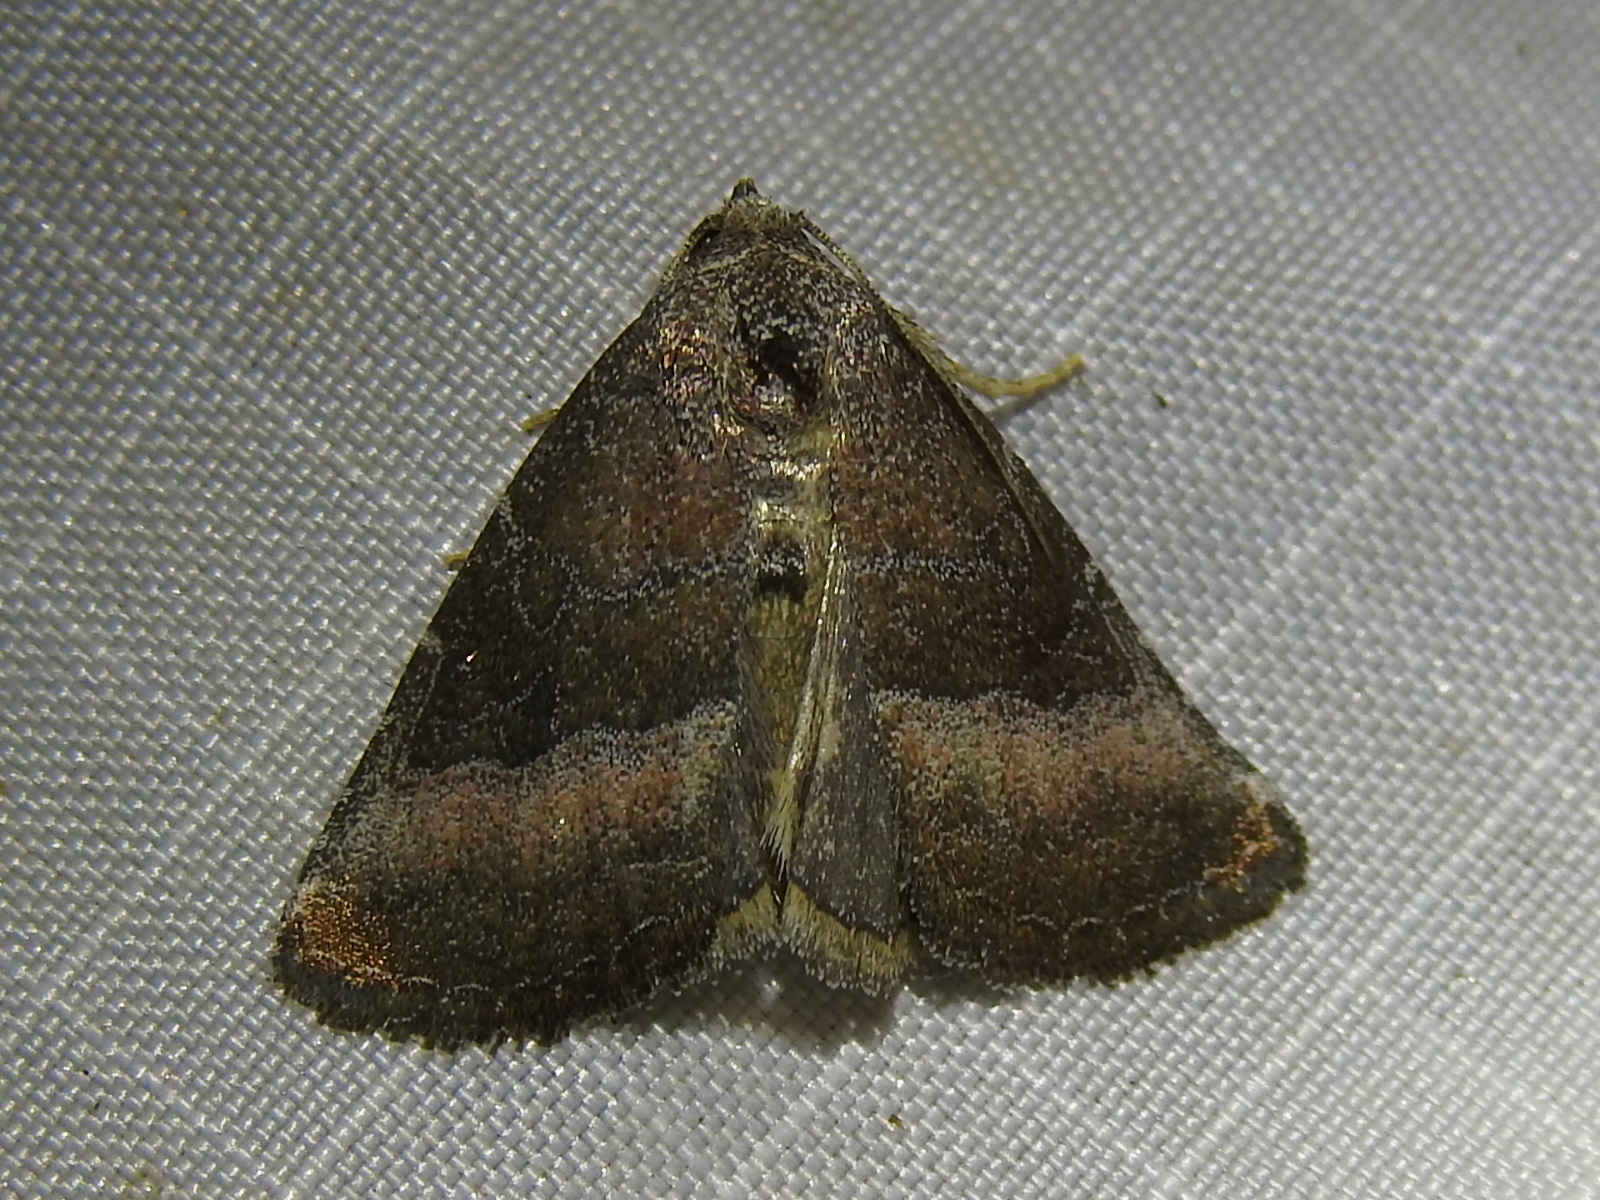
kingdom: Animalia
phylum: Arthropoda
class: Insecta
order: Lepidoptera
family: Noctuidae
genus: Ogdoconta
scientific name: Ogdoconta cinereola
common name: Common pinkband
